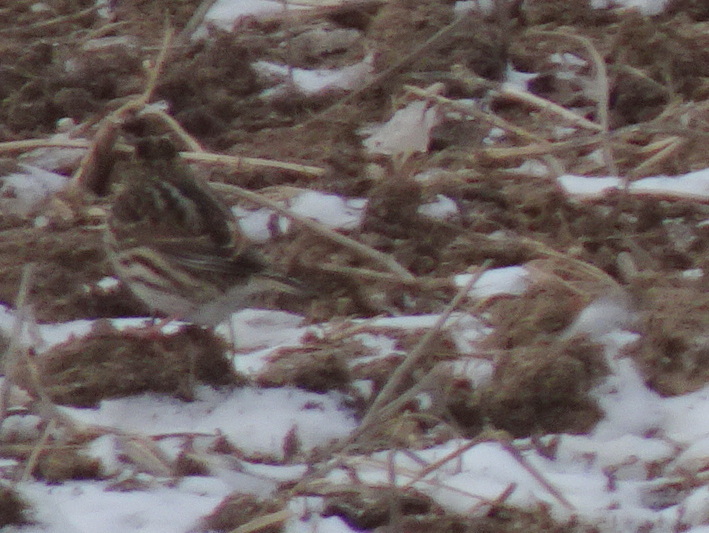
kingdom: Animalia
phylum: Chordata
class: Aves
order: Passeriformes
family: Alaudidae
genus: Eremophila
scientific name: Eremophila alpestris
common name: Horned lark
